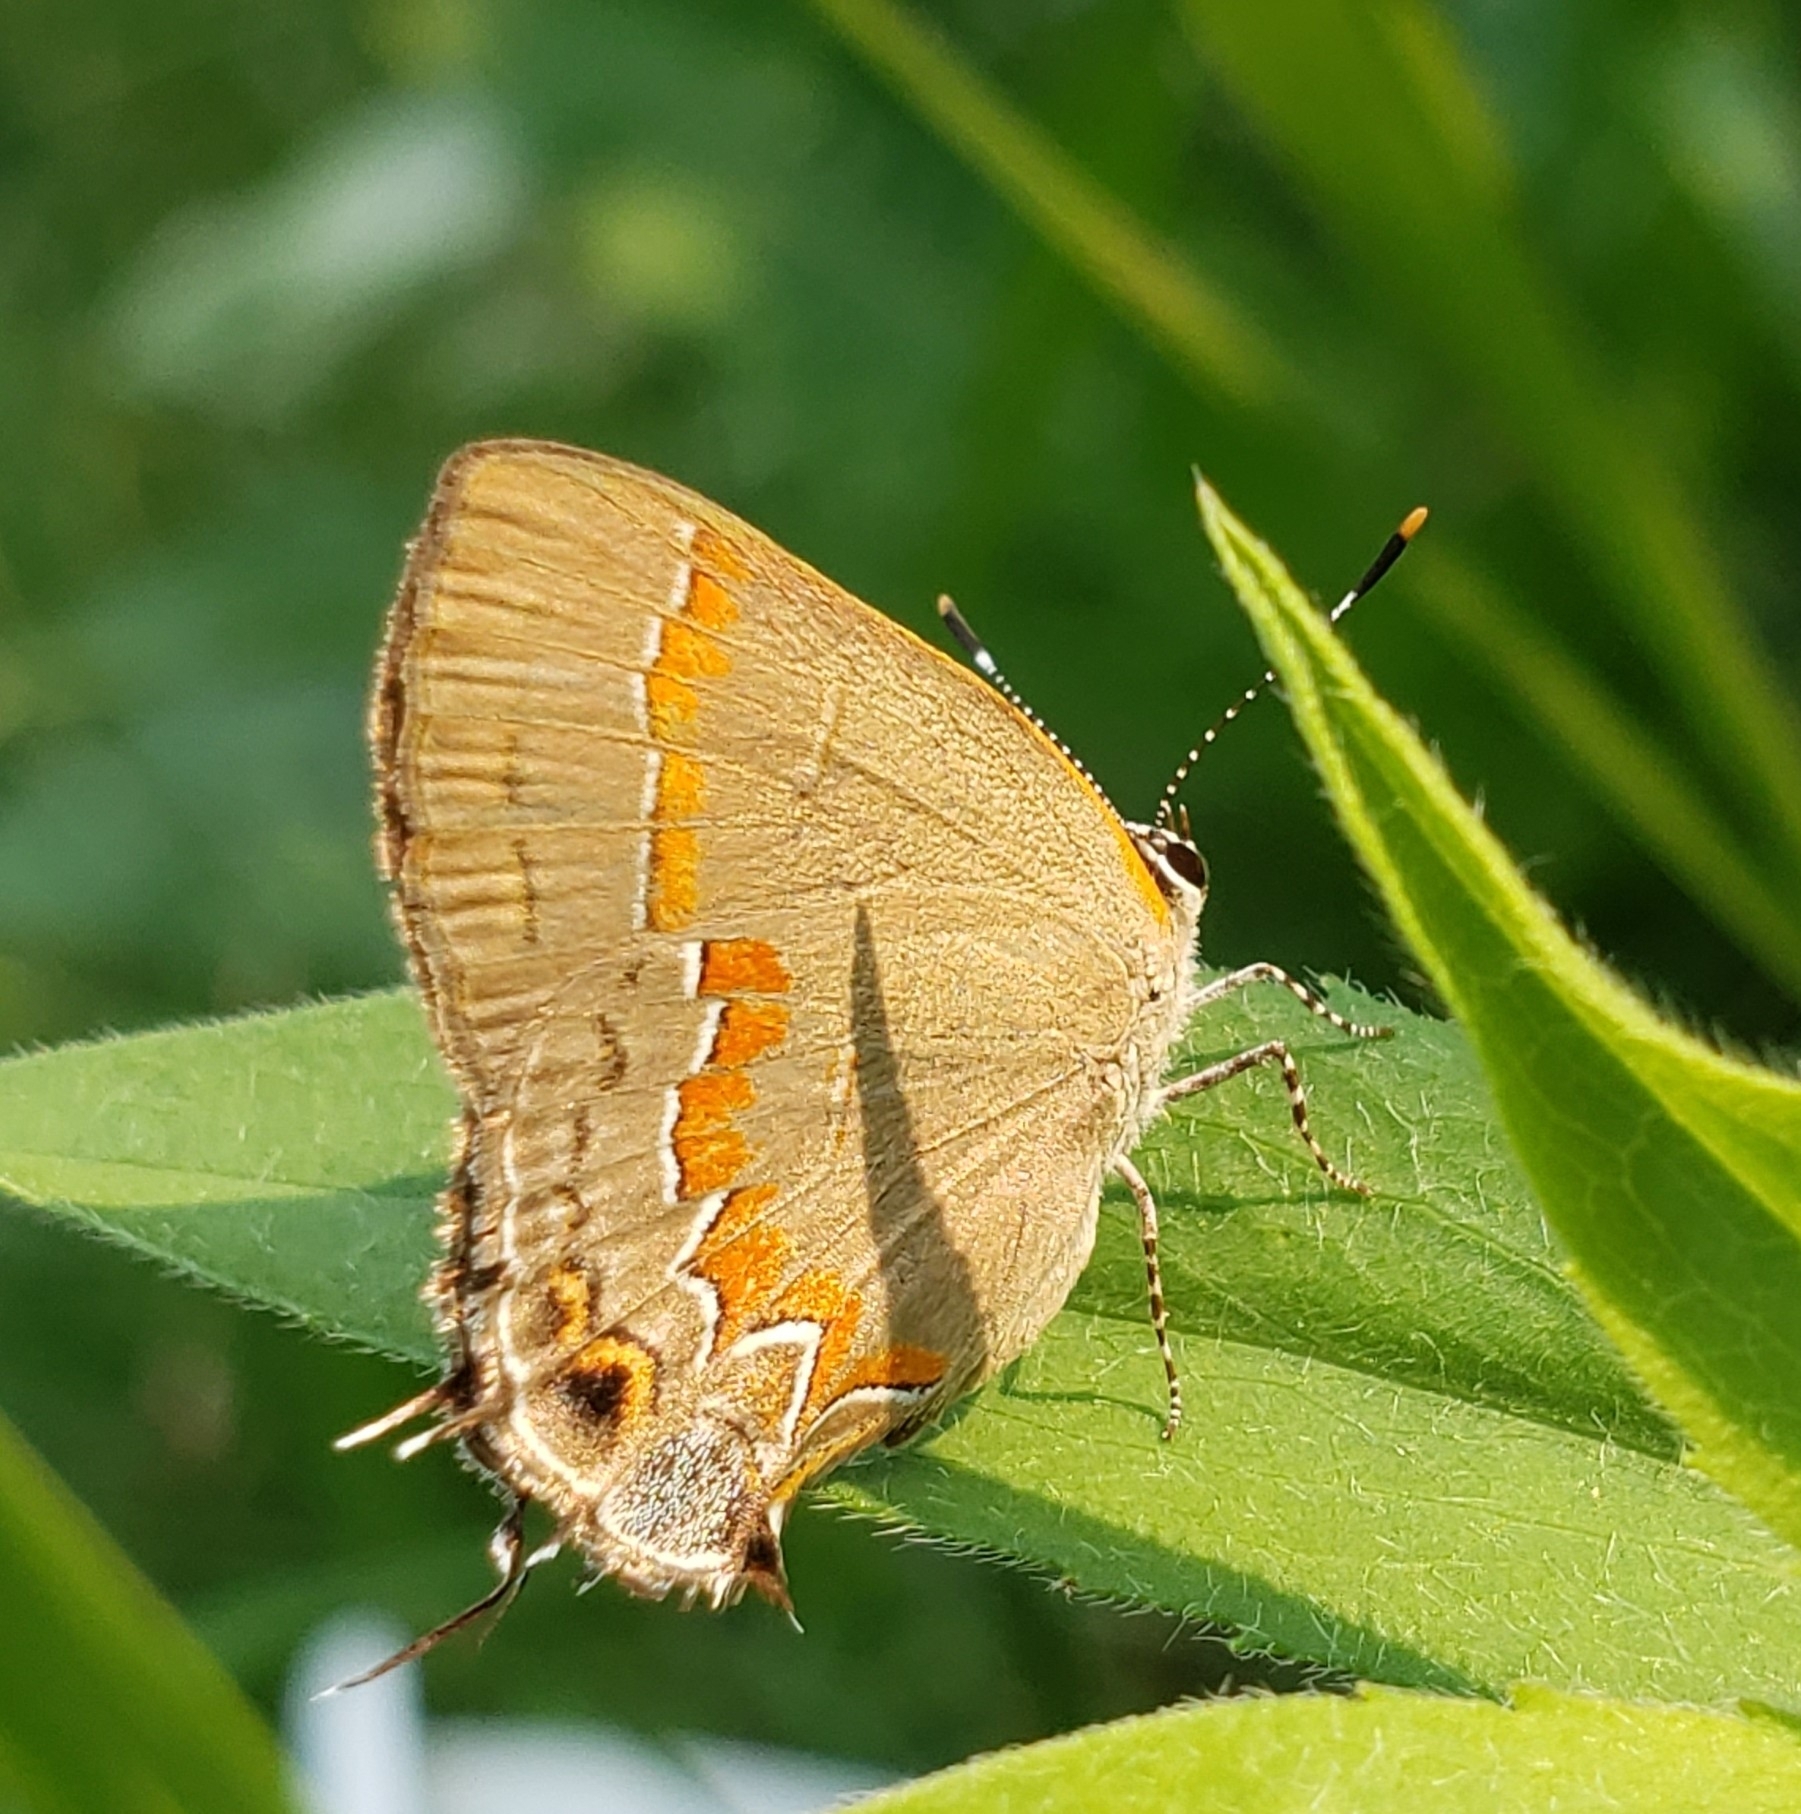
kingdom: Animalia
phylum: Arthropoda
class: Insecta
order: Lepidoptera
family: Lycaenidae
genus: Calycopis
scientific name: Calycopis cecrops
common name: Red-banded hairstreak
